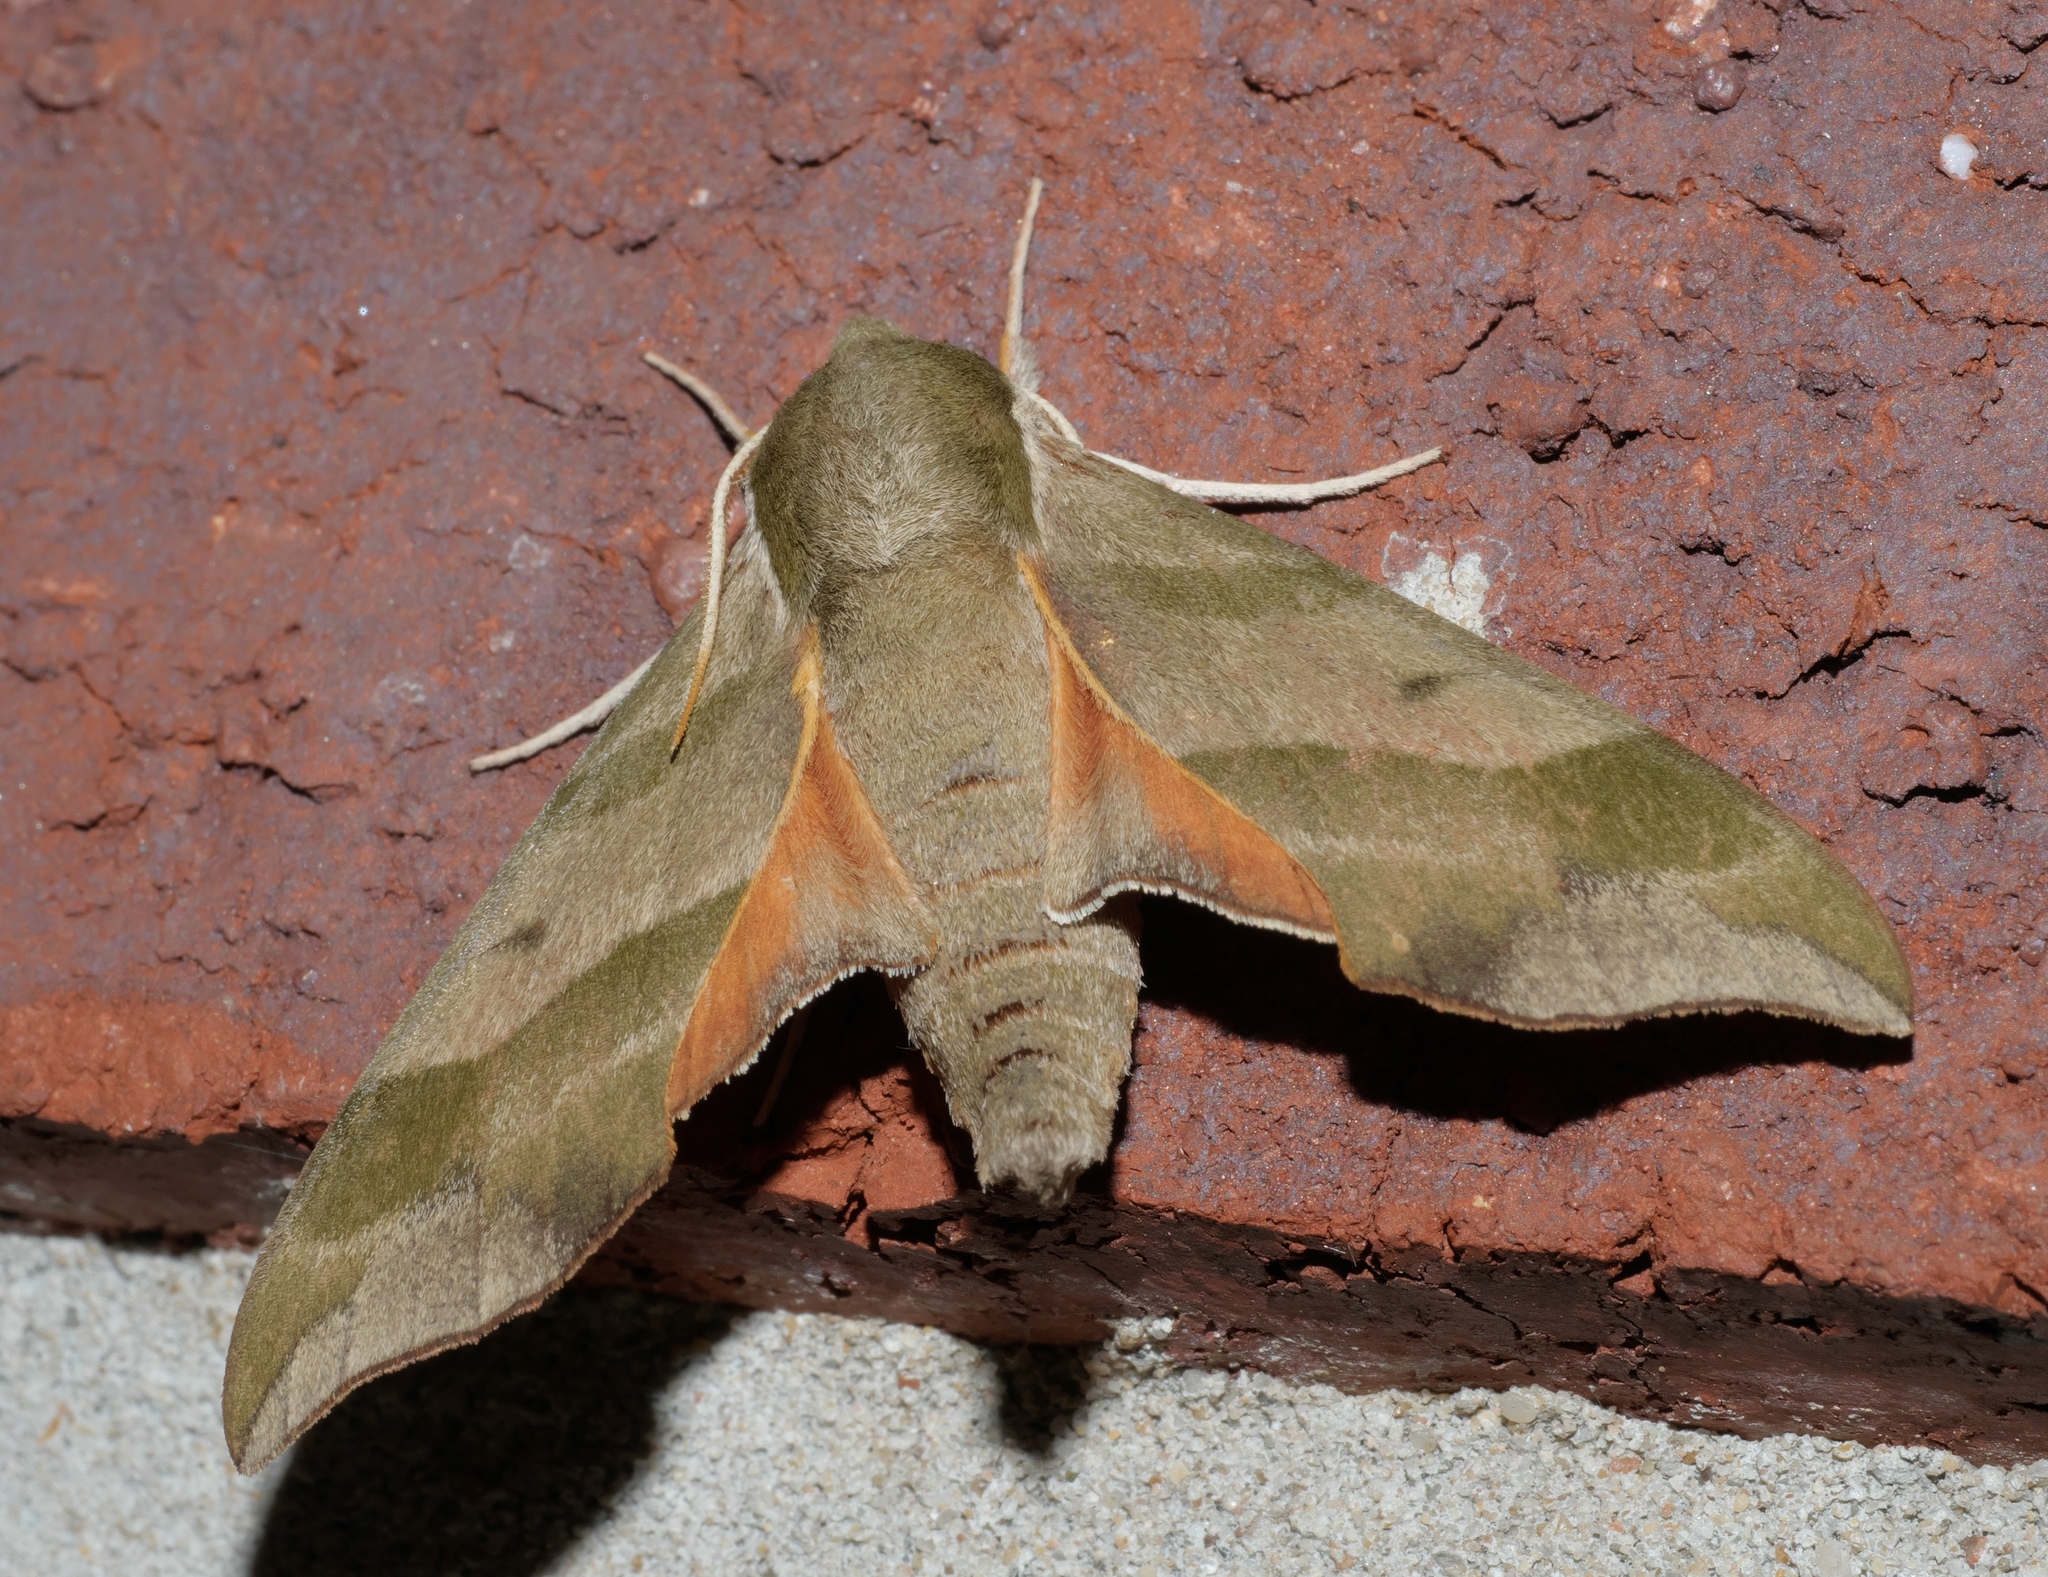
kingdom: Animalia
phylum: Arthropoda
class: Insecta
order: Lepidoptera
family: Sphingidae
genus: Darapsa
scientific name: Darapsa myron
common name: Hog sphinx
